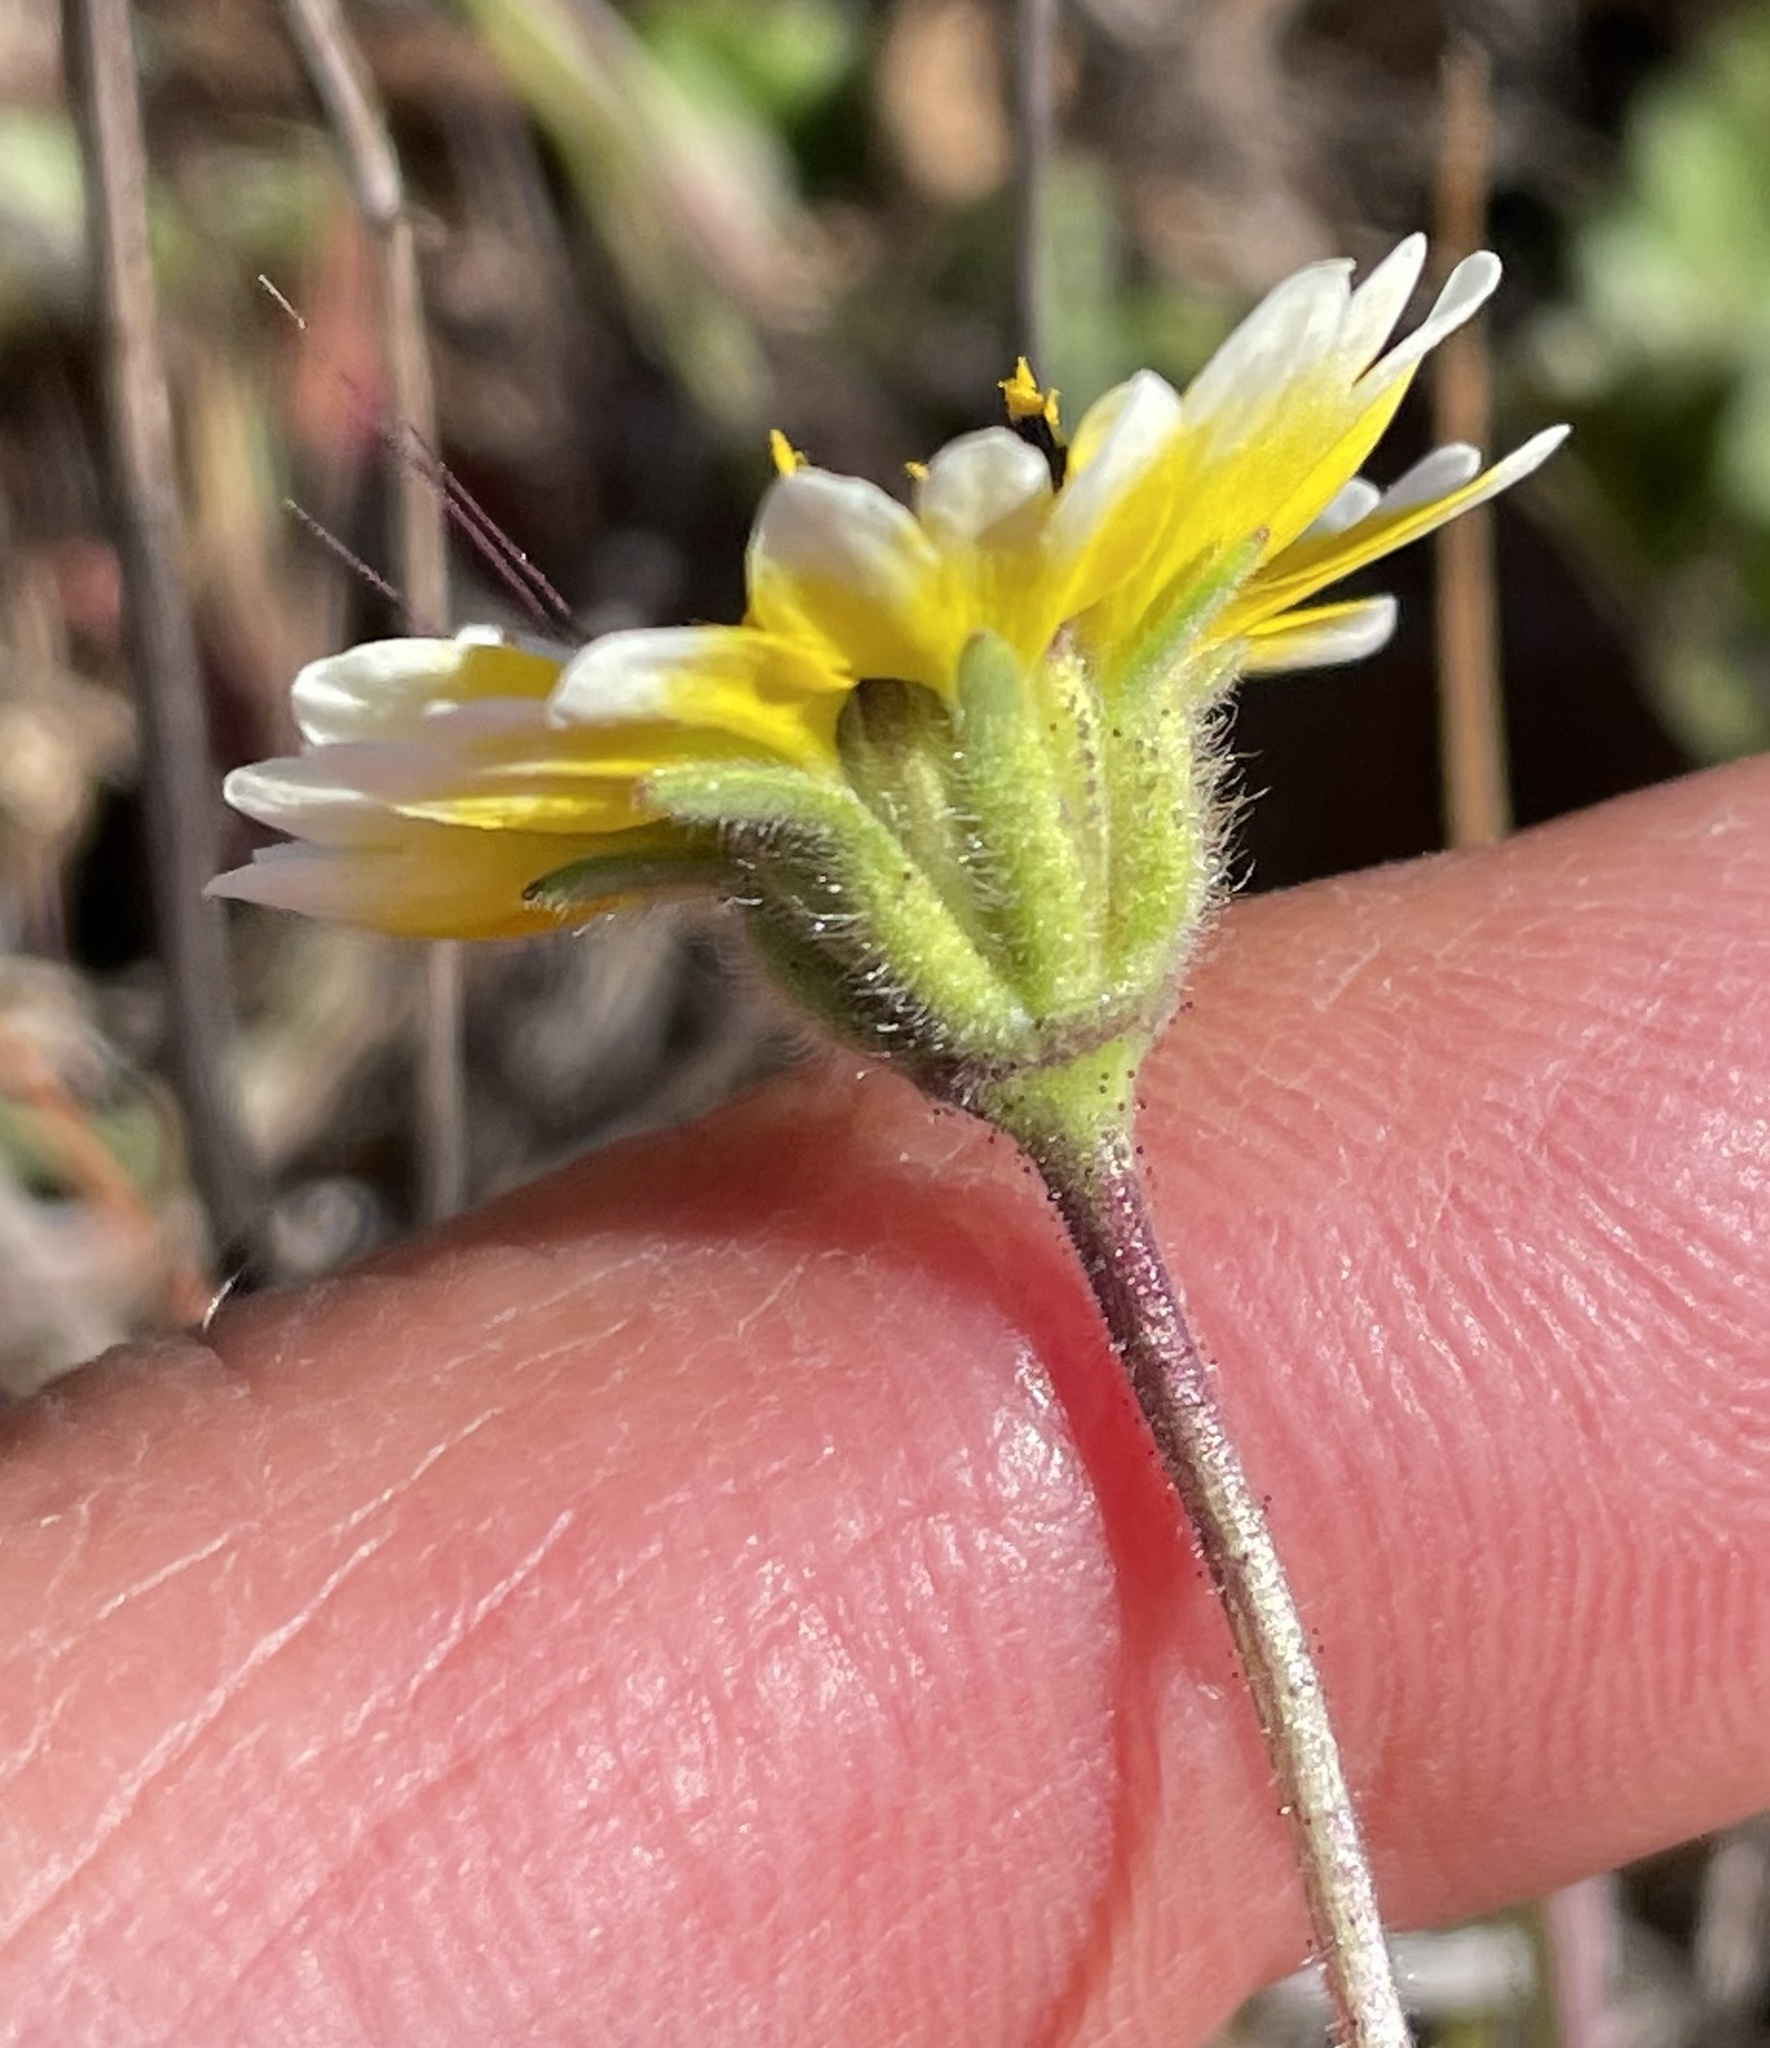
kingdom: Plantae
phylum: Tracheophyta
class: Magnoliopsida
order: Asterales
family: Asteraceae
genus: Layia
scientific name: Layia platyglossa
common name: Tidy-tips
